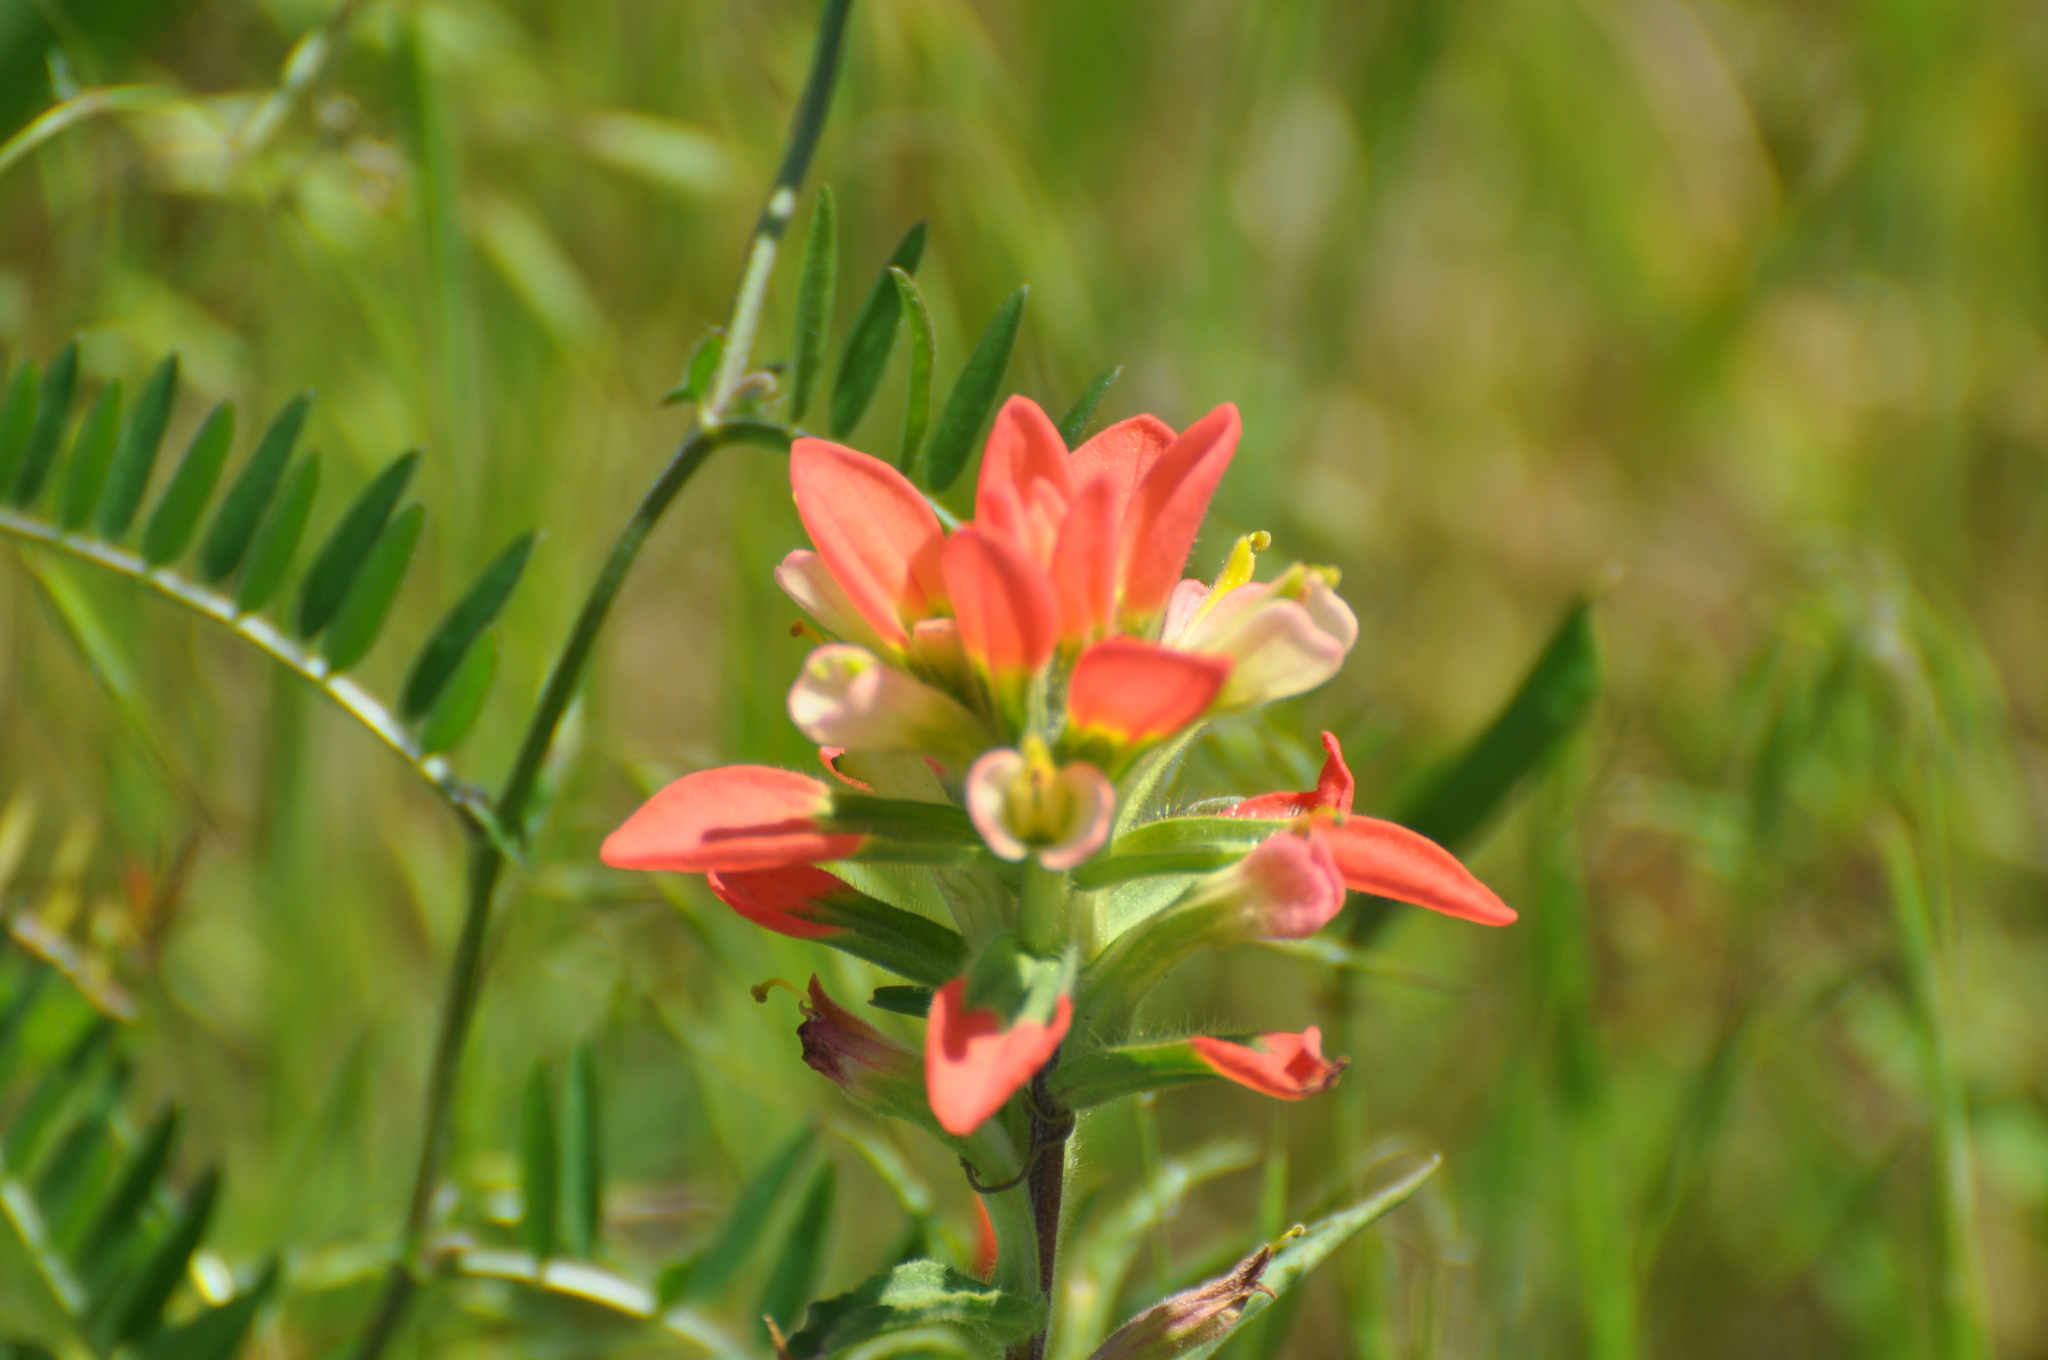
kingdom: Plantae
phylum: Tracheophyta
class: Magnoliopsida
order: Lamiales
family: Orobanchaceae
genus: Castilleja
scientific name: Castilleja indivisa
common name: Texas paintbrush
